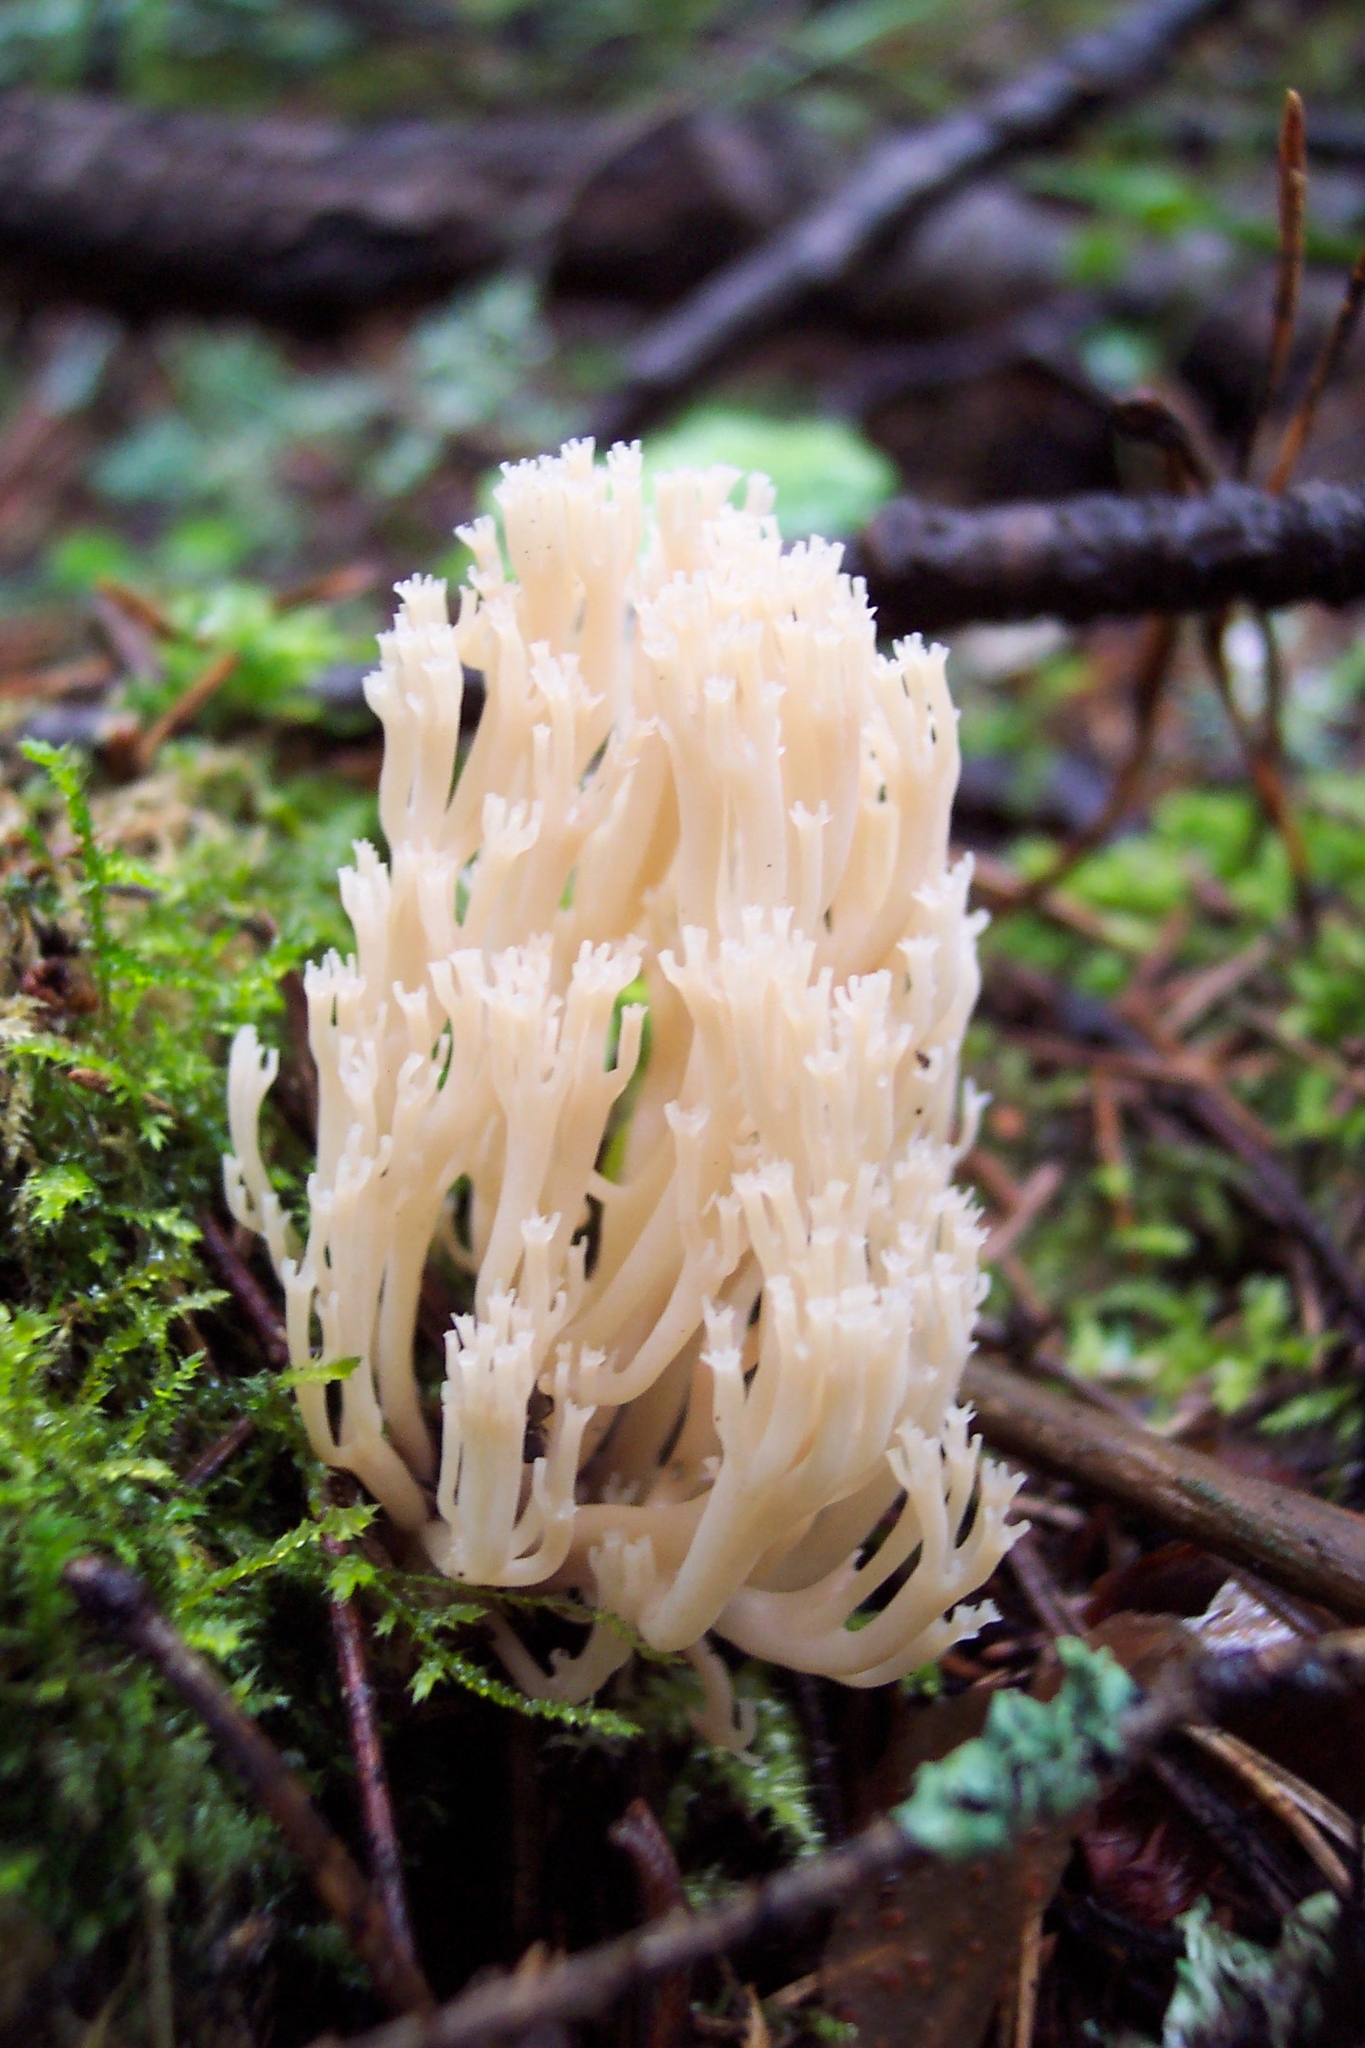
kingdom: Fungi
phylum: Basidiomycota
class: Agaricomycetes
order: Russulales
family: Auriscalpiaceae
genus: Artomyces
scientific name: Artomyces pyxidatus
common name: Crown-tipped coral fungus
